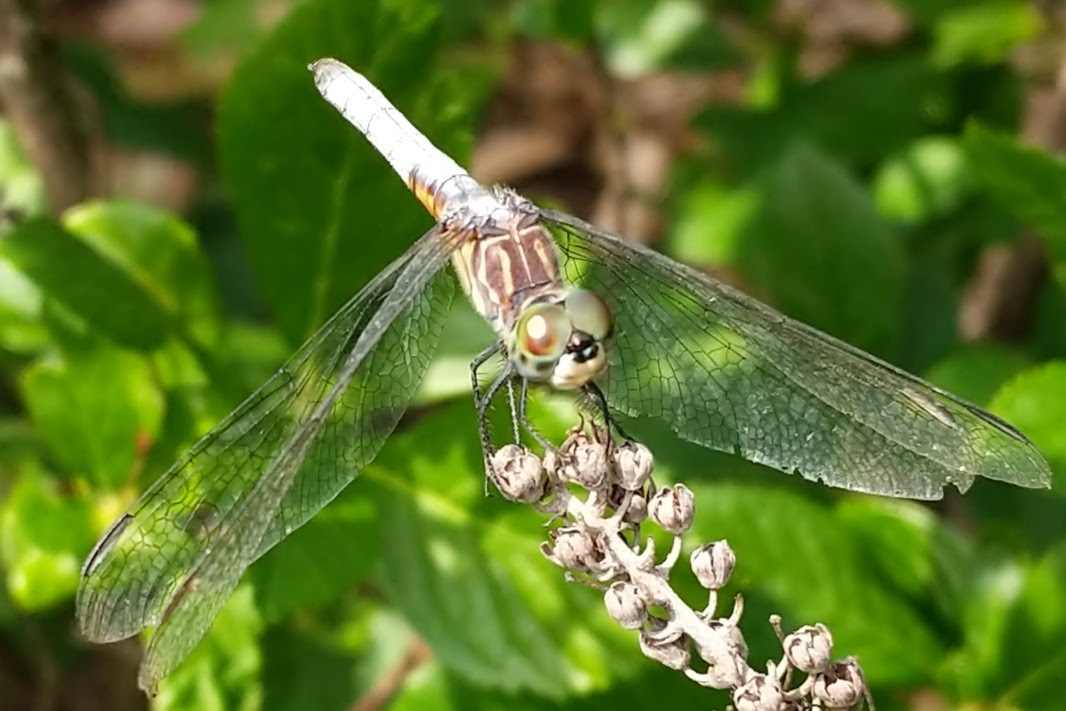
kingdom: Animalia
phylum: Arthropoda
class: Insecta
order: Odonata
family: Libellulidae
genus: Pachydiplax
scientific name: Pachydiplax longipennis
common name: Blue dasher
